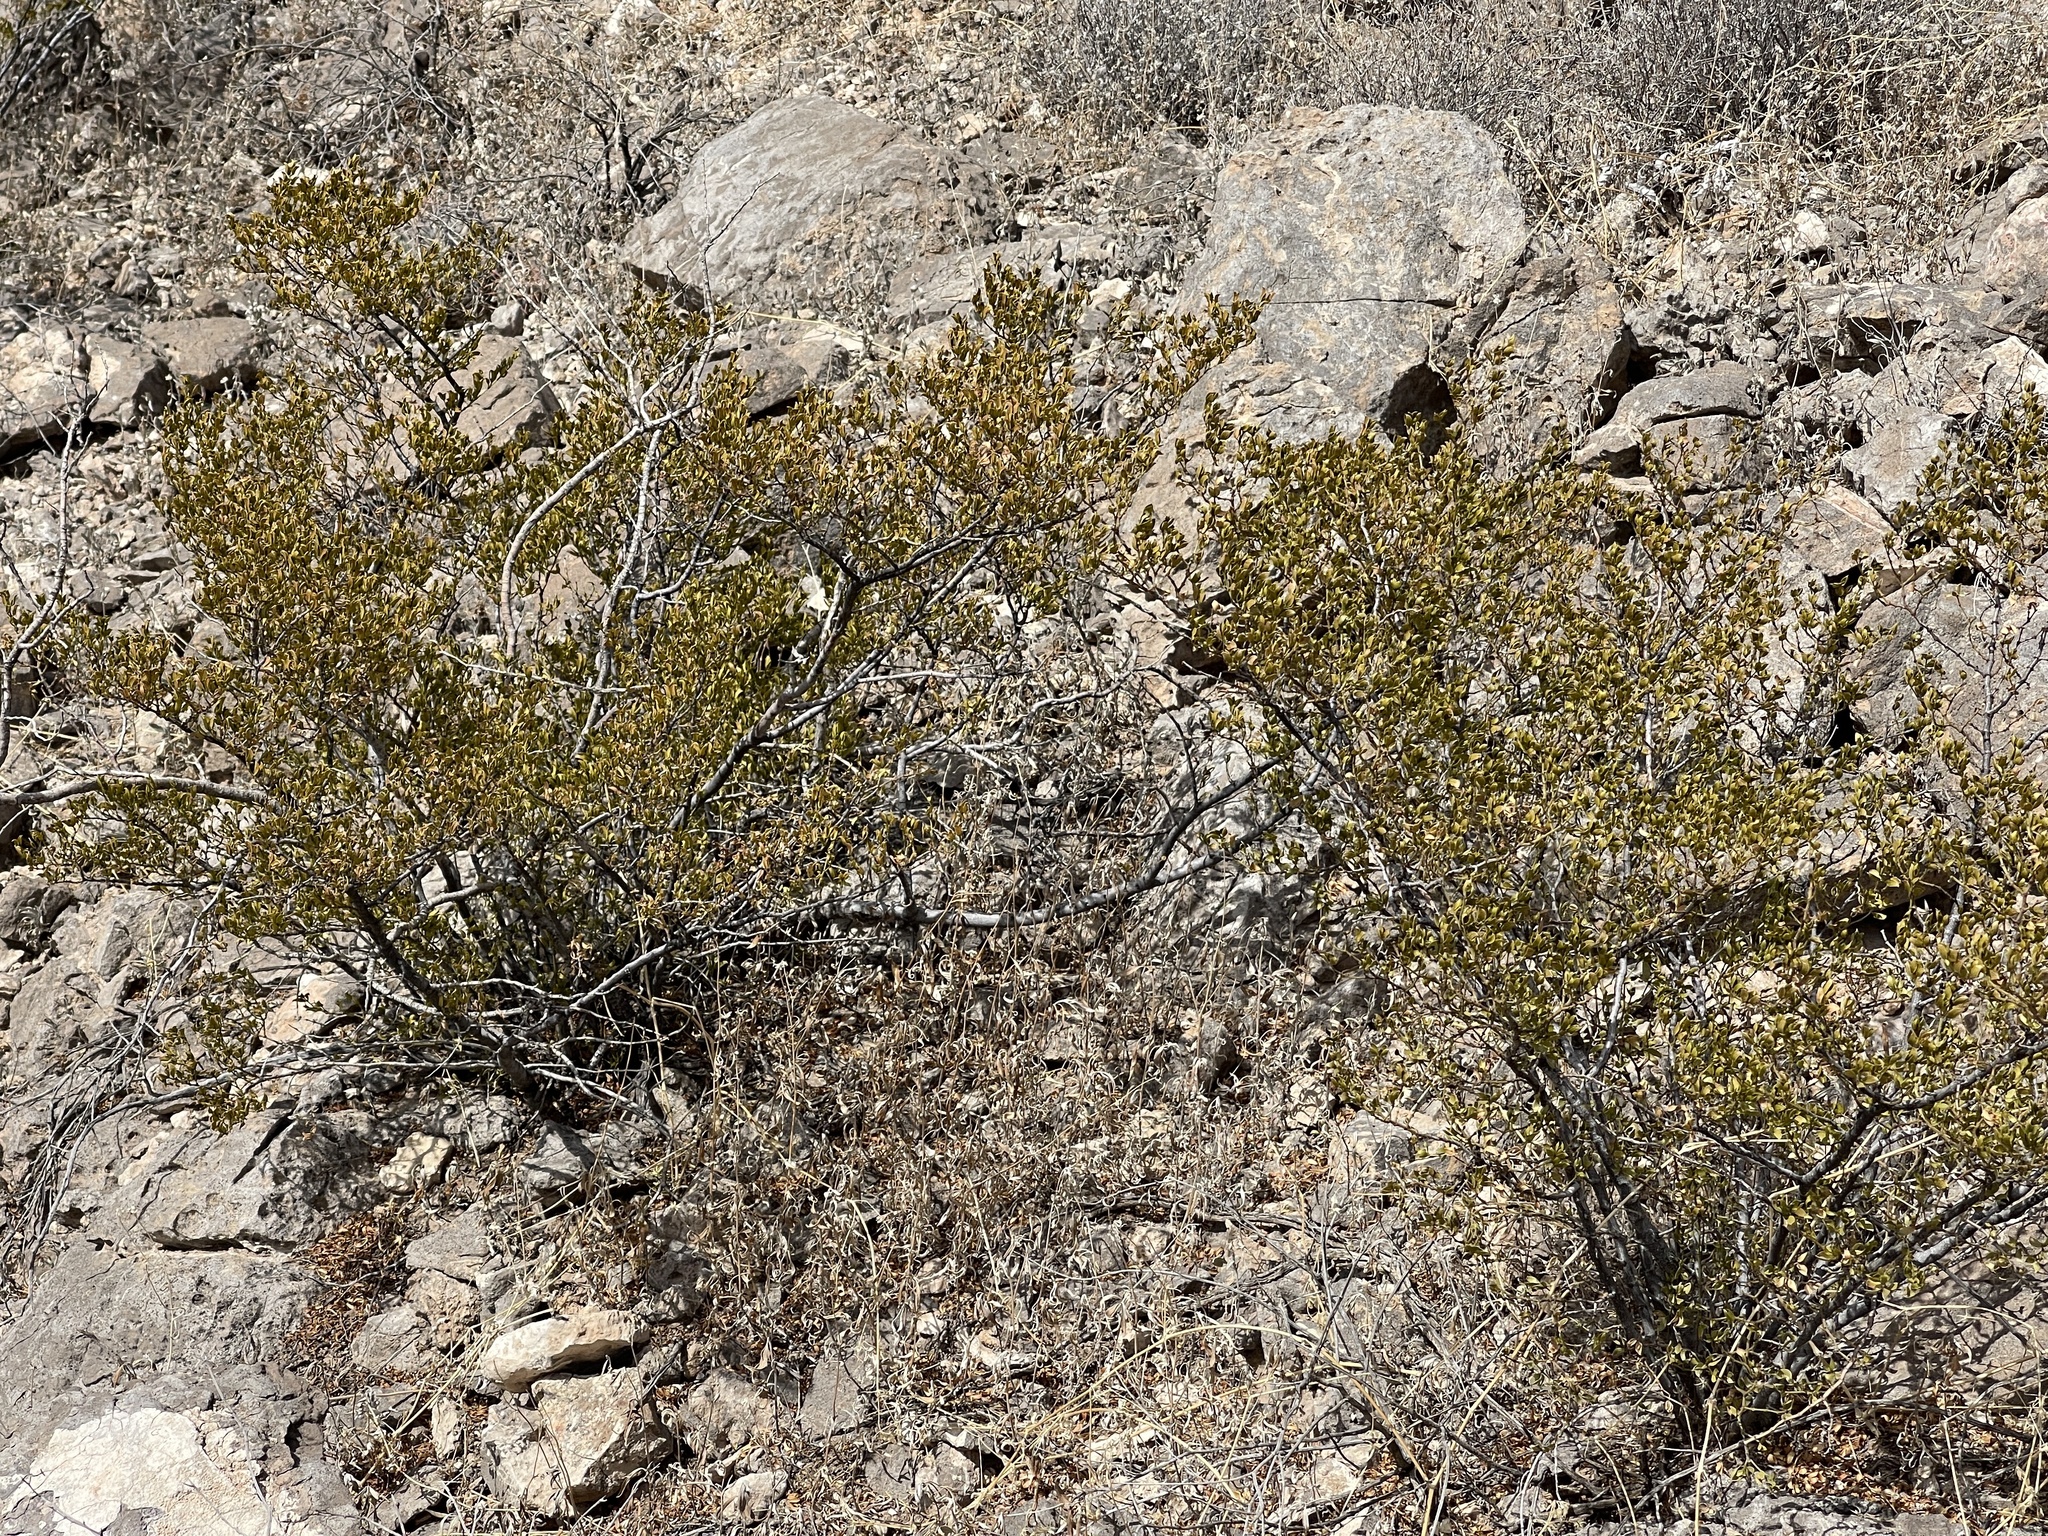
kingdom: Plantae
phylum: Tracheophyta
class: Magnoliopsida
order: Zygophyllales
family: Zygophyllaceae
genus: Larrea
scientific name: Larrea tridentata
